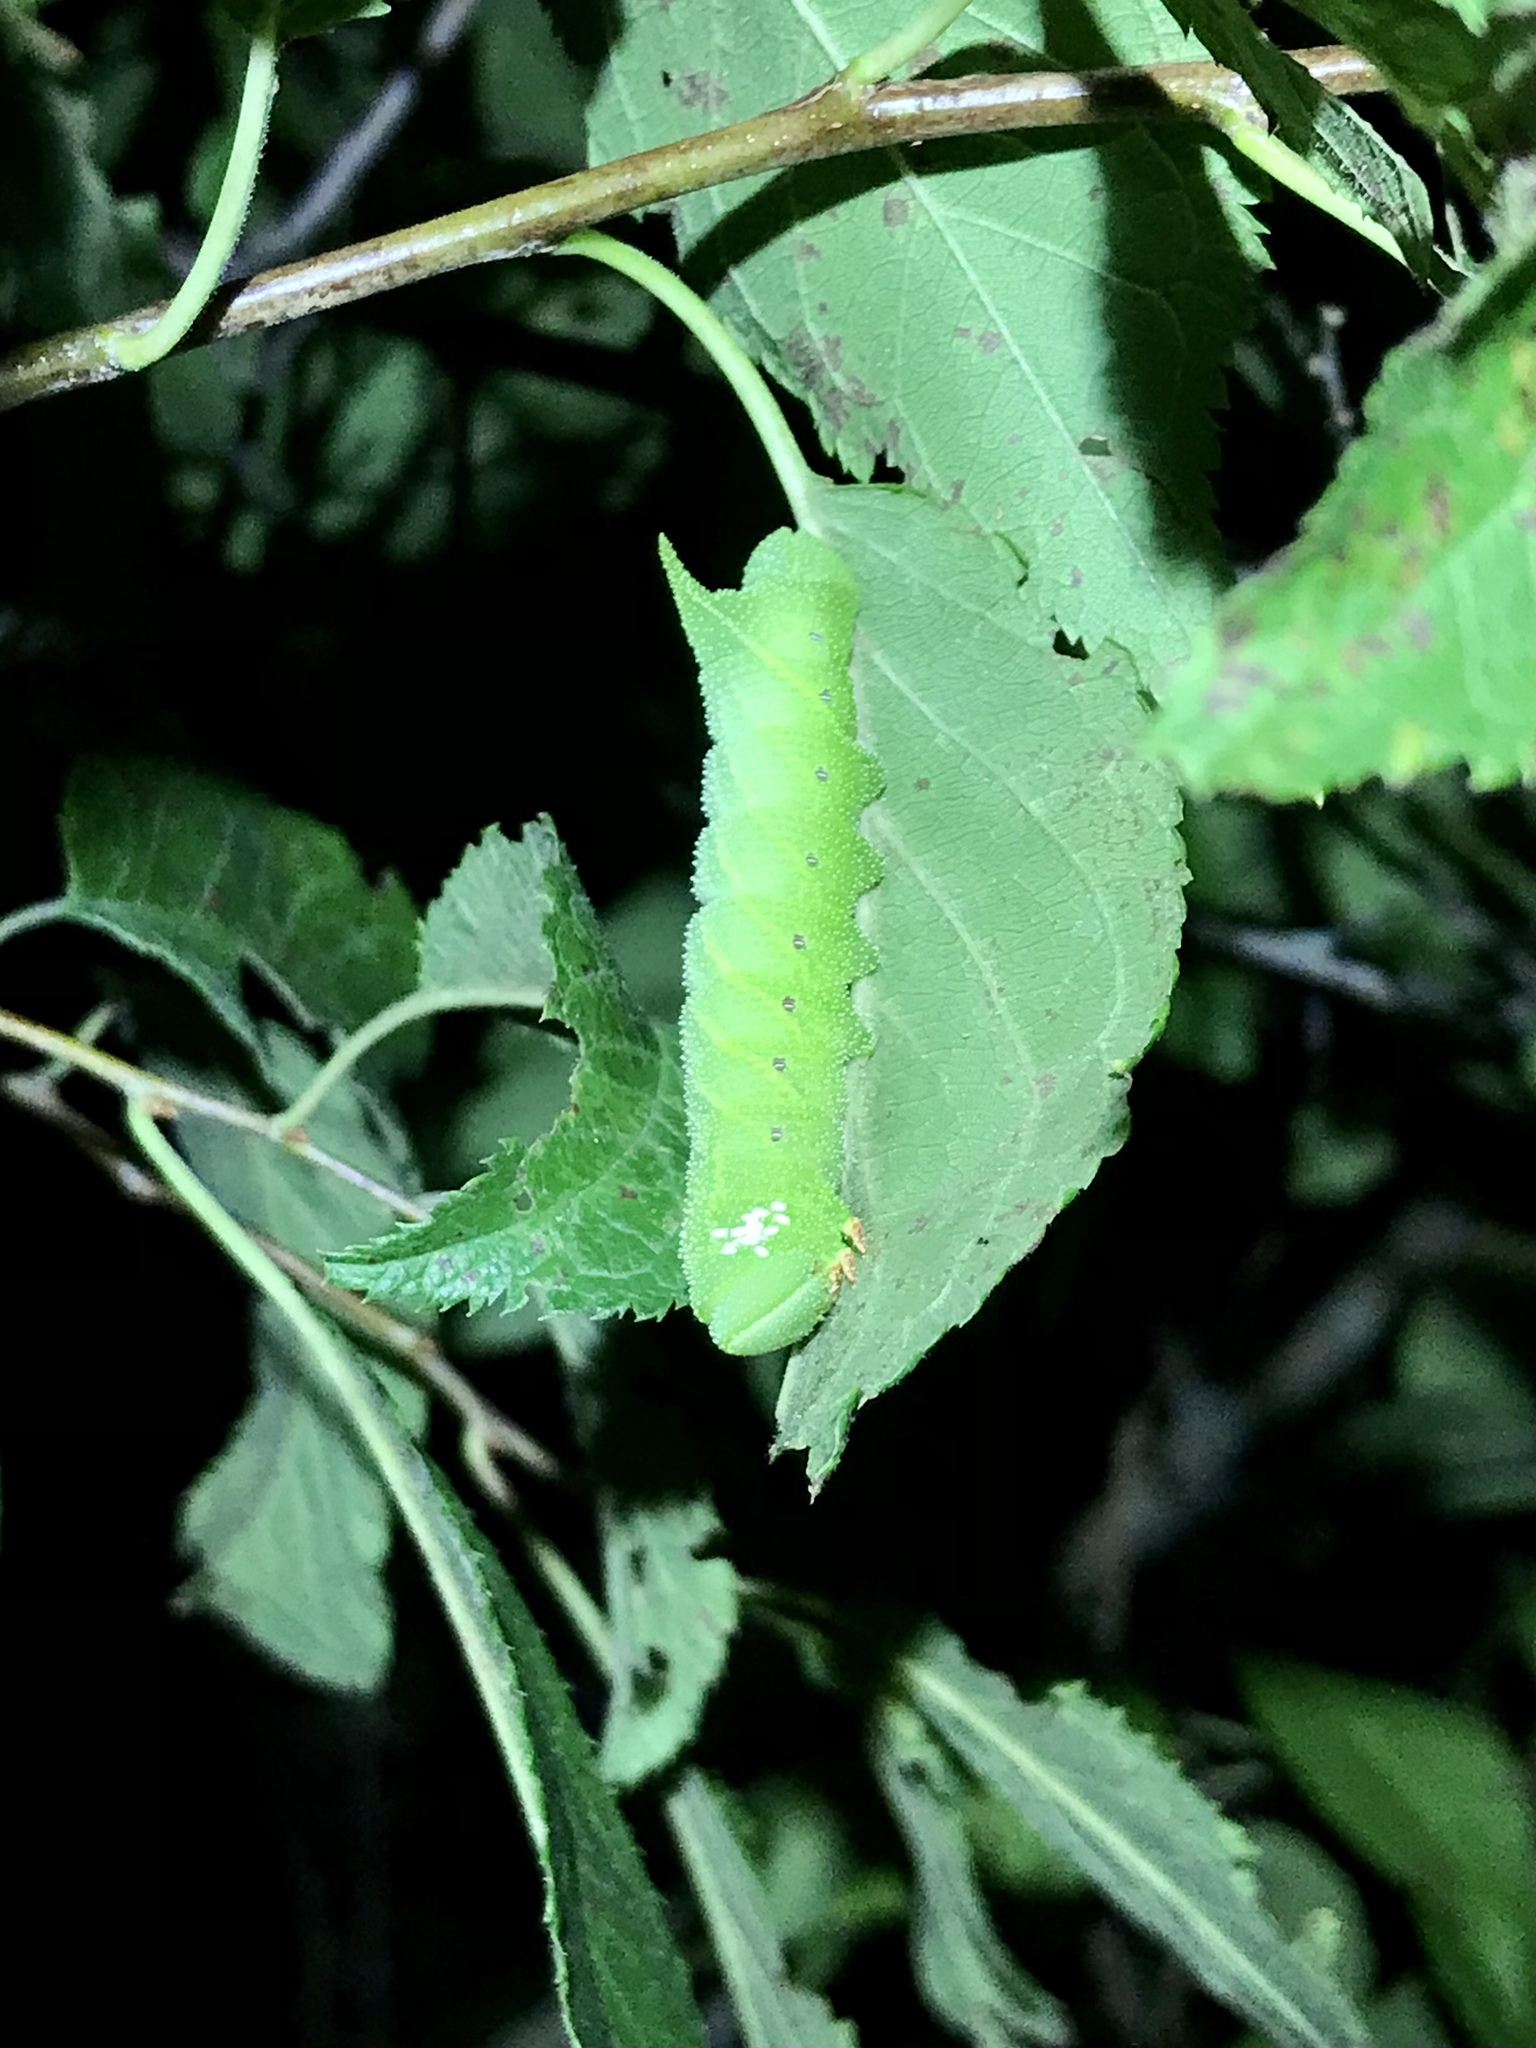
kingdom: Animalia
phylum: Arthropoda
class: Insecta
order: Lepidoptera
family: Sphingidae
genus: Paonias
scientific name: Paonias excaecata
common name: Blind-eyed sphinx
